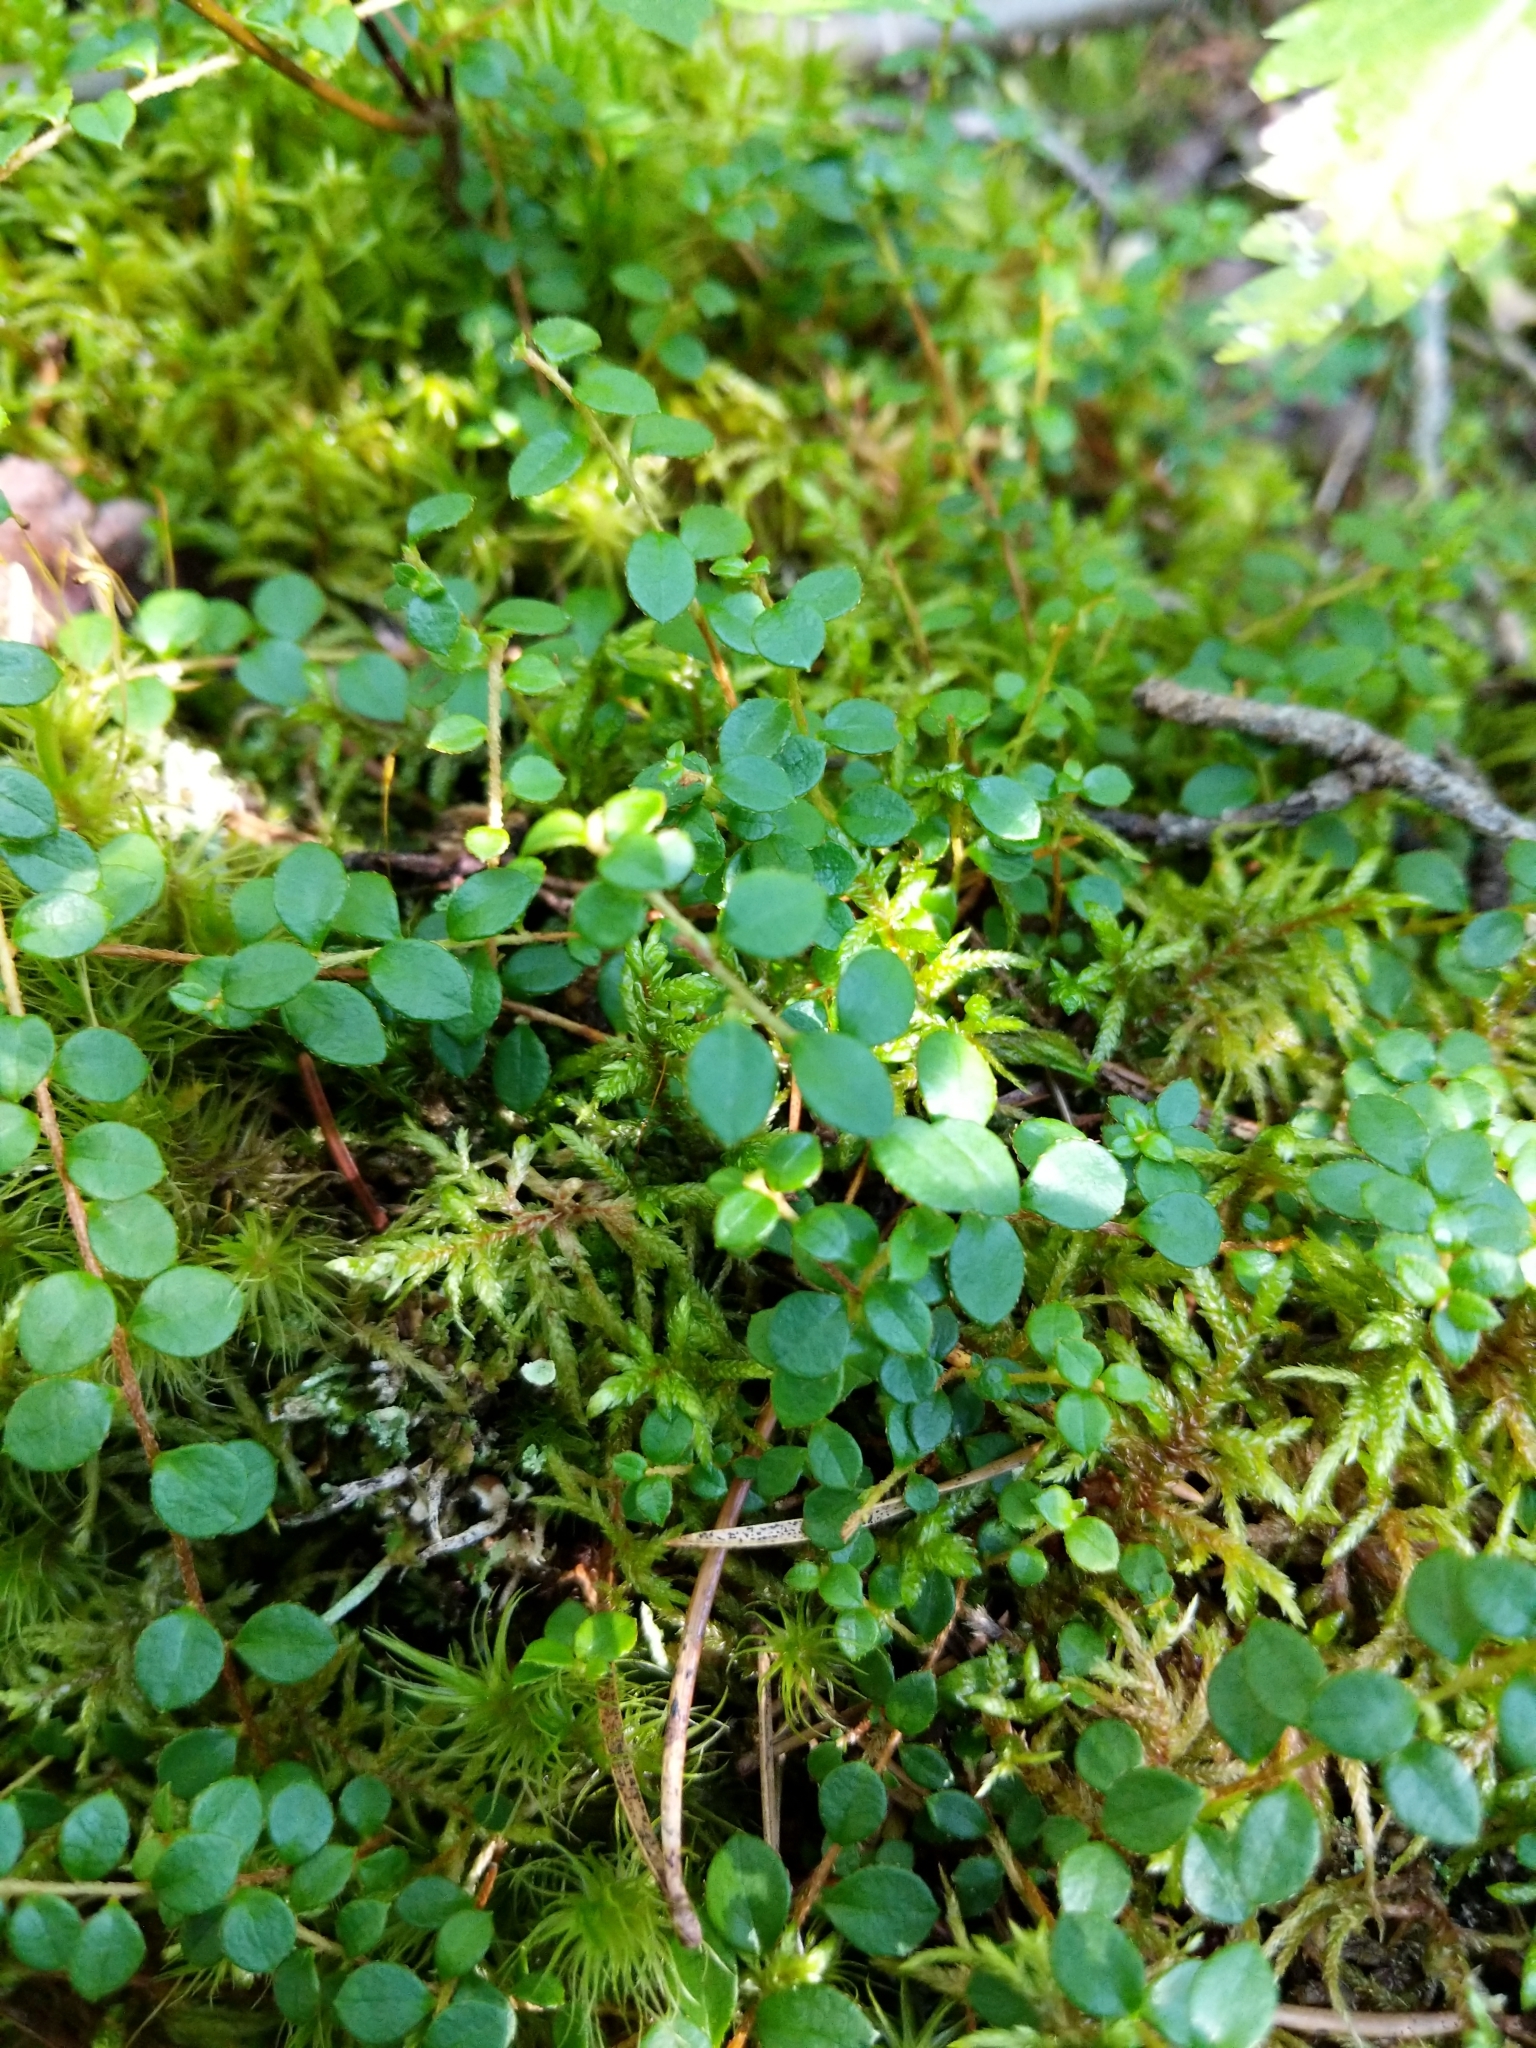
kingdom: Plantae
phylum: Tracheophyta
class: Magnoliopsida
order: Ericales
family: Ericaceae
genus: Gaultheria
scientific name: Gaultheria hispidula
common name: Cancer wintergreen
